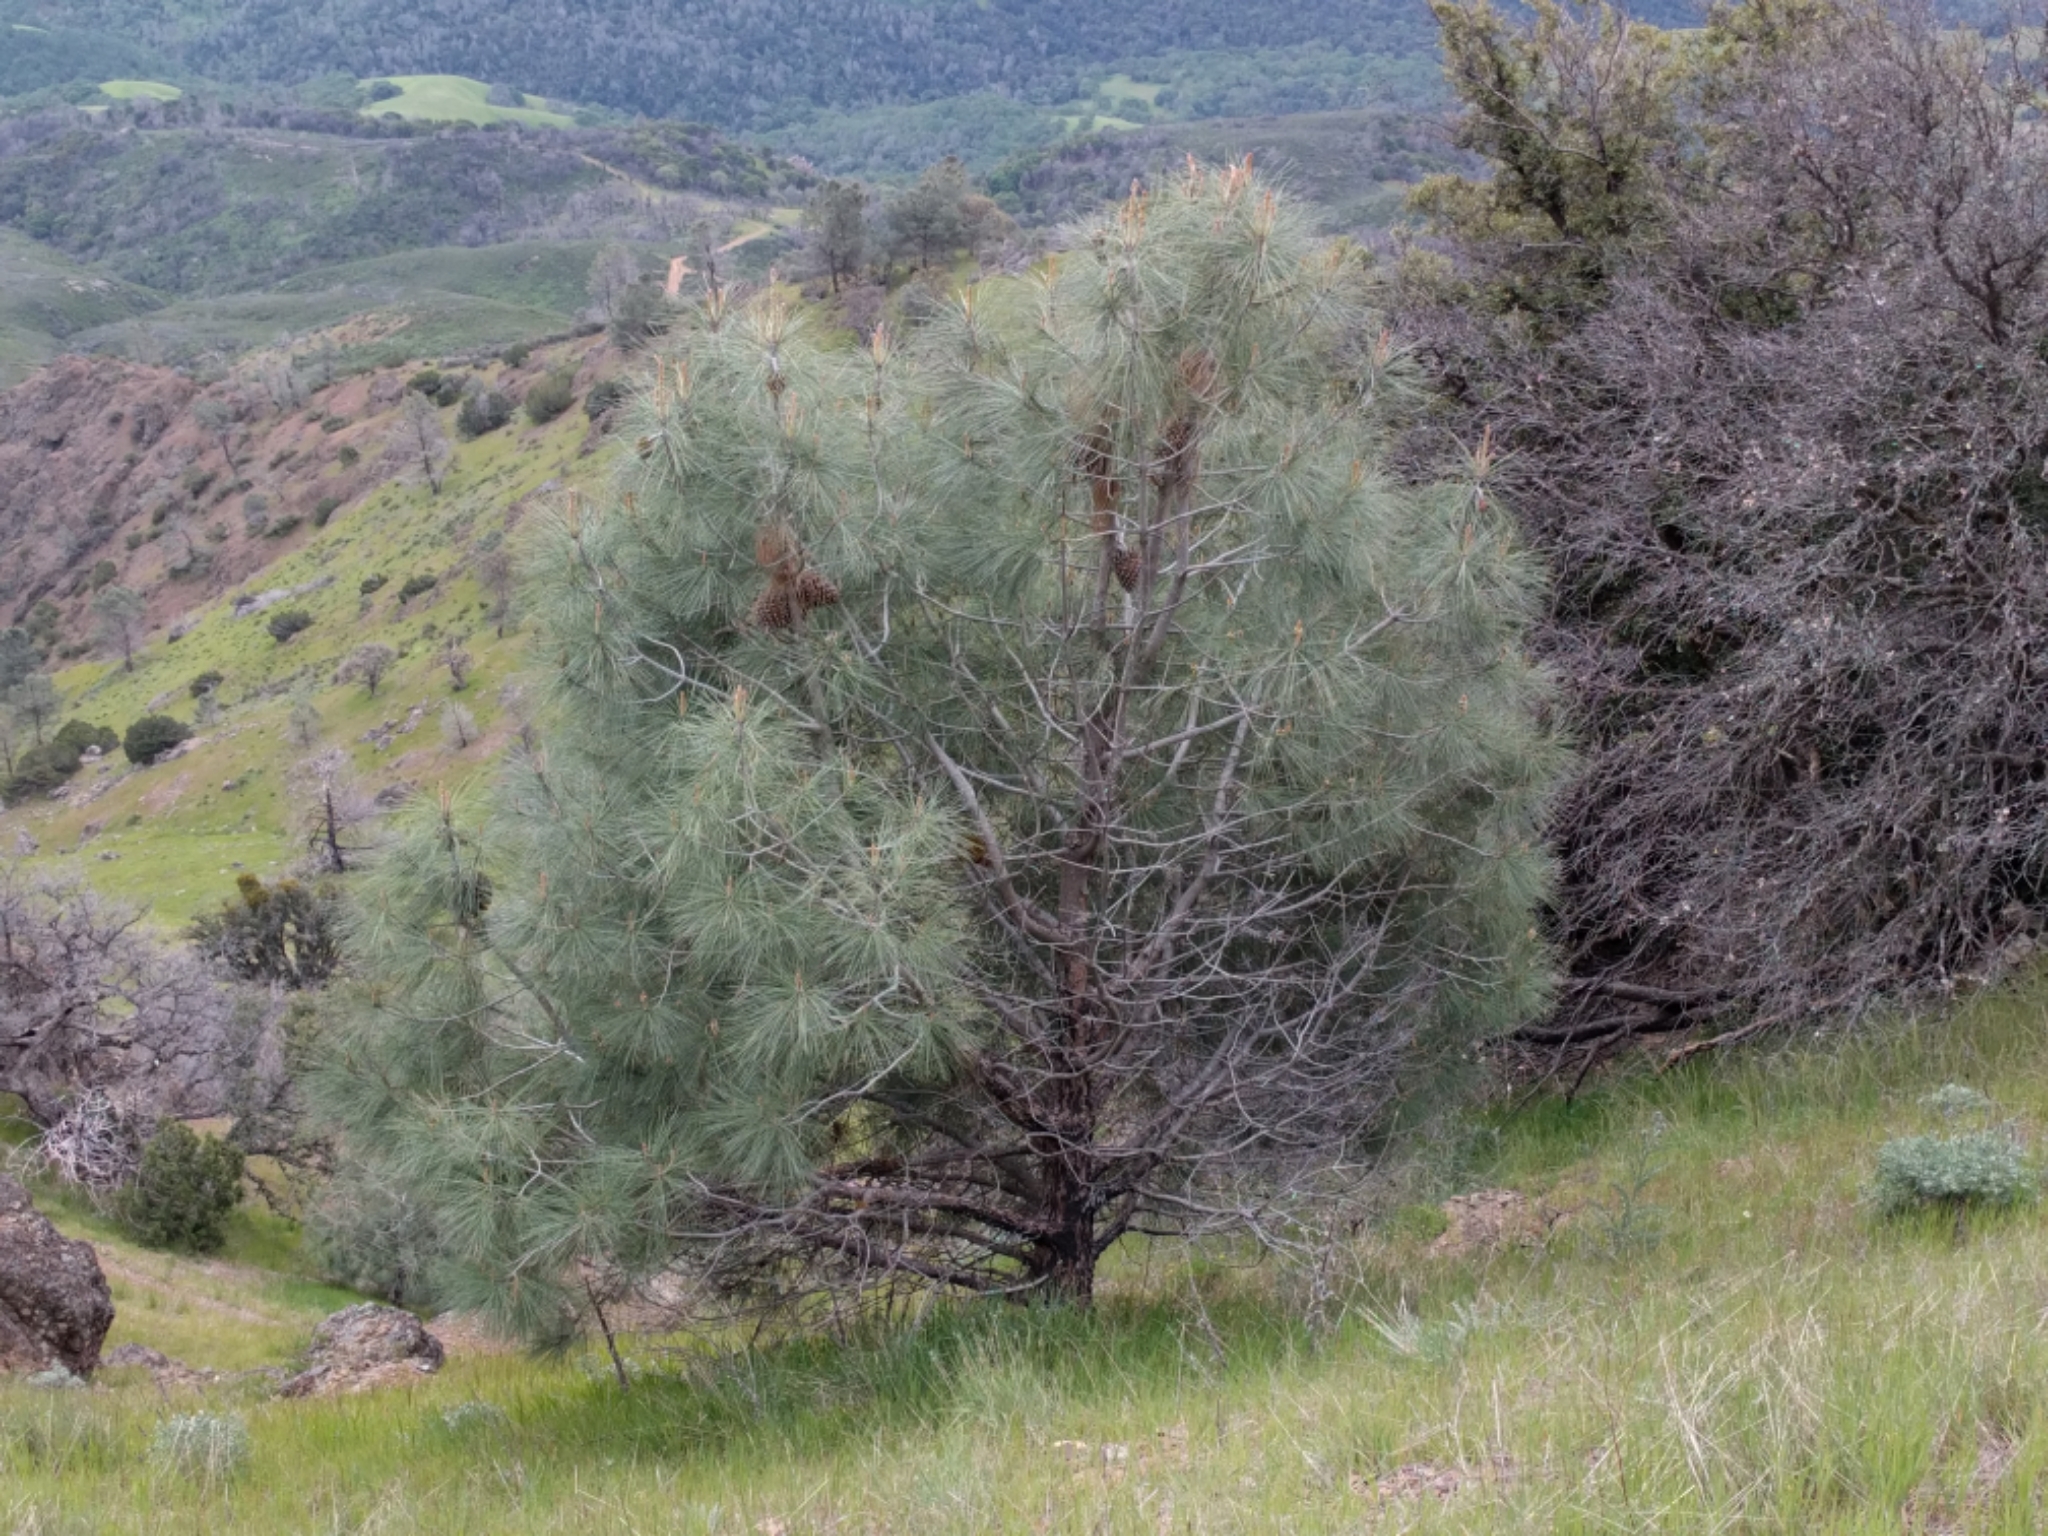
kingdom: Plantae
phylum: Tracheophyta
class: Pinopsida
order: Pinales
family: Pinaceae
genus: Pinus
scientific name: Pinus sabiniana
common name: Bull pine
